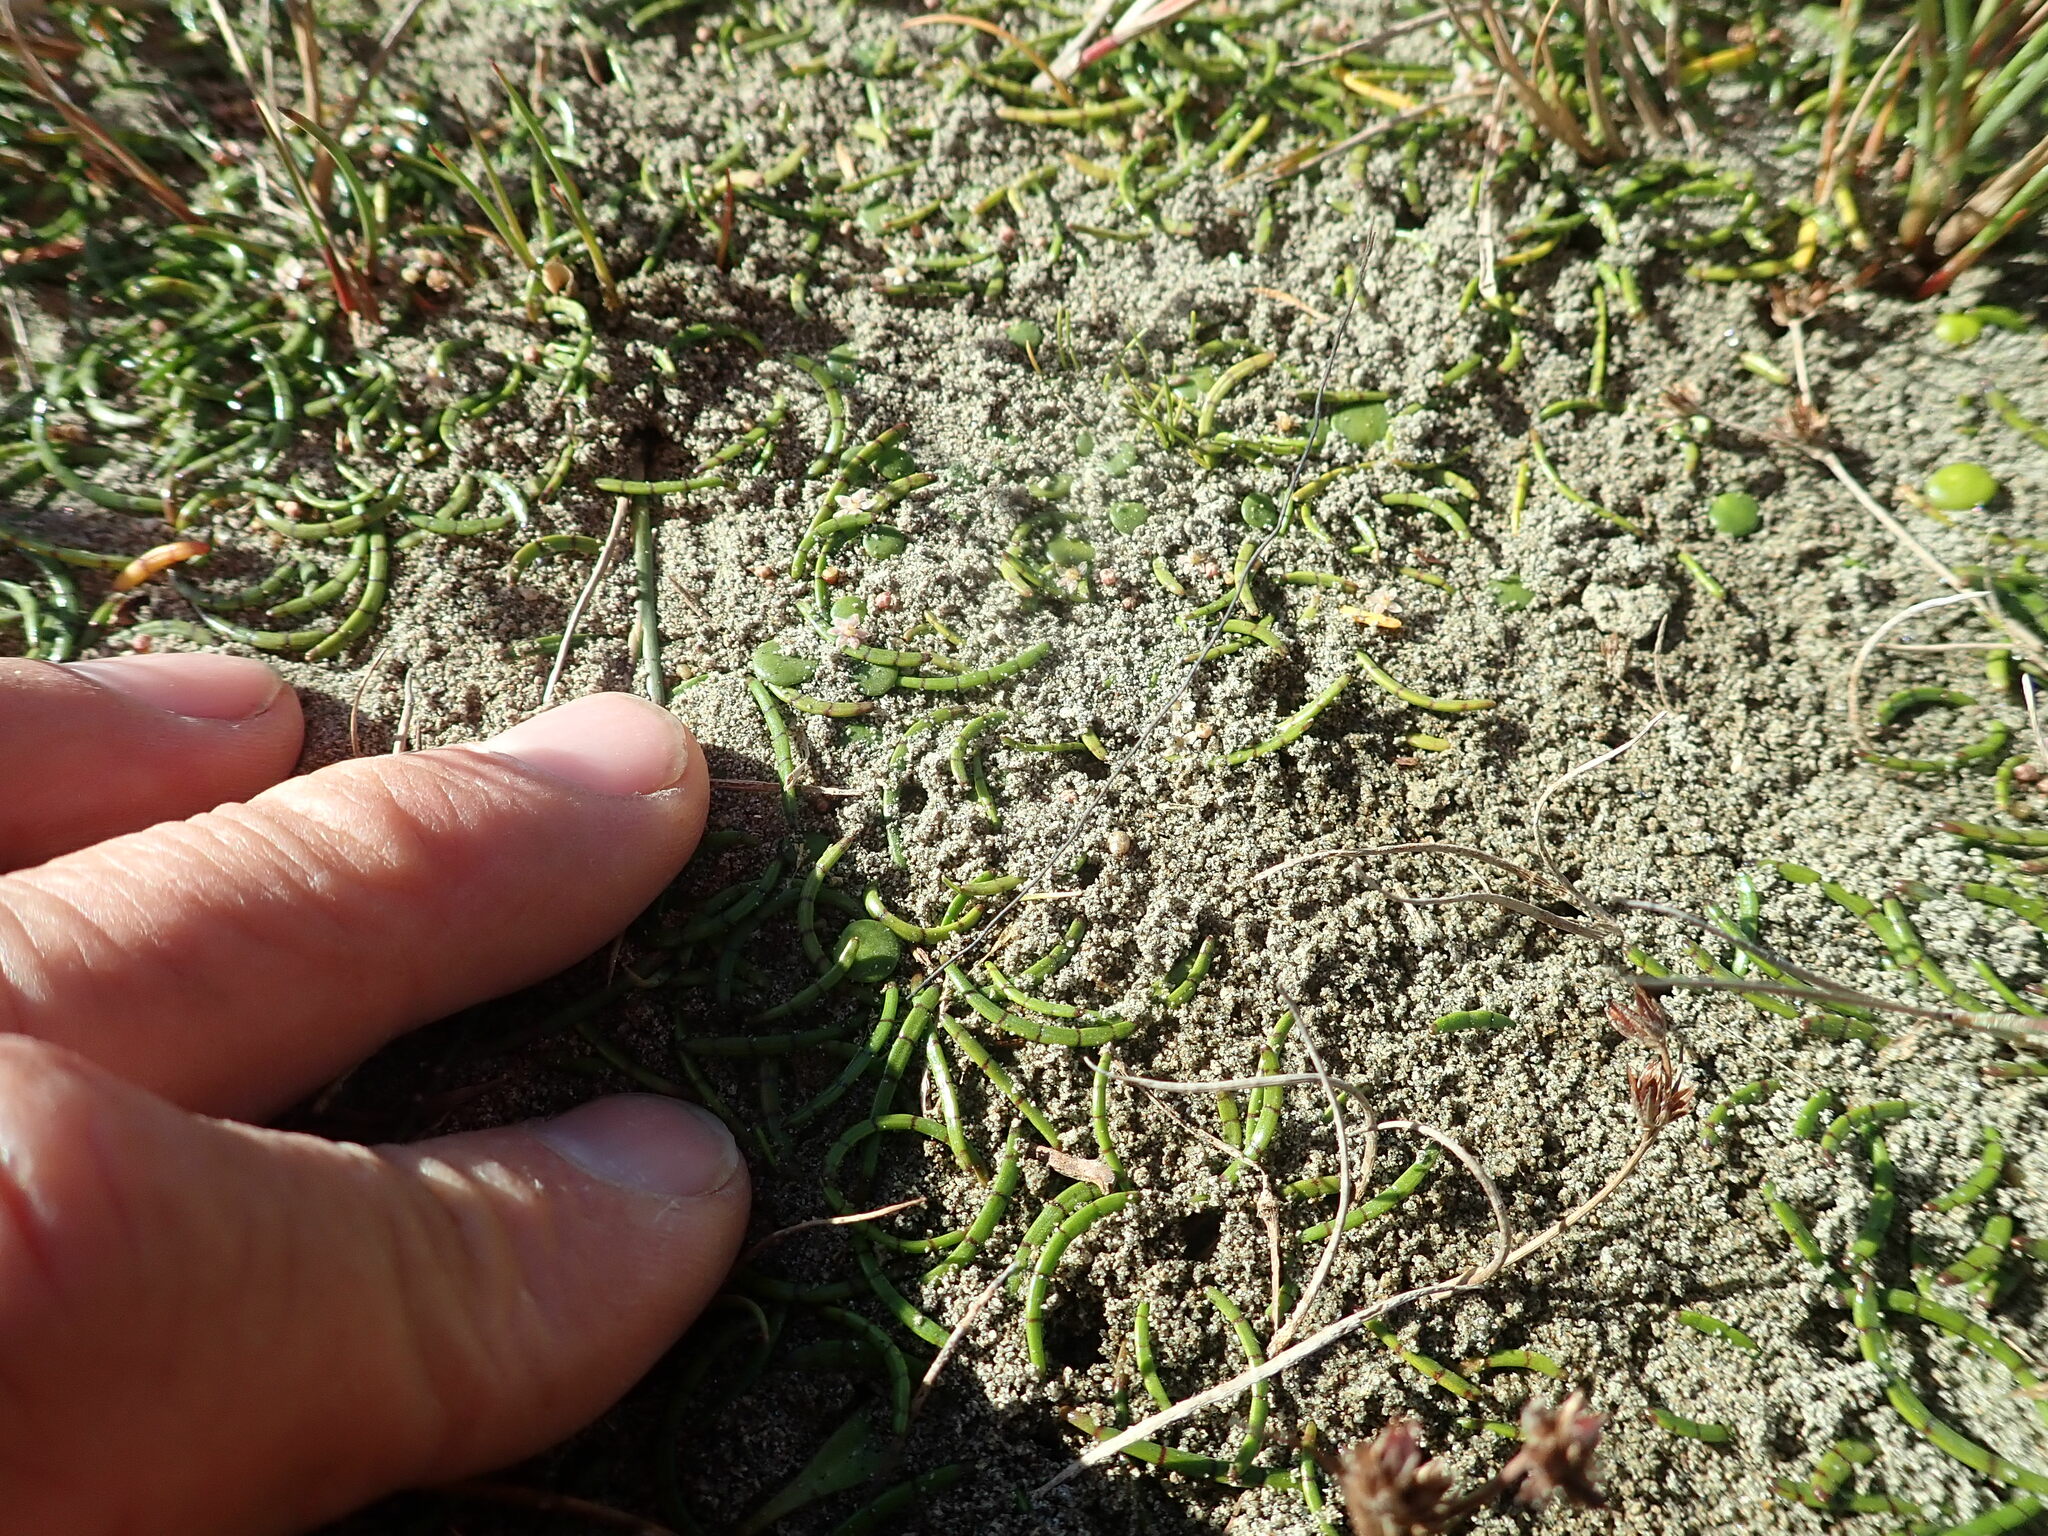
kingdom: Plantae
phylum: Tracheophyta
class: Magnoliopsida
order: Apiales
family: Apiaceae
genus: Lilaeopsis
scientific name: Lilaeopsis novae-zelandiae
